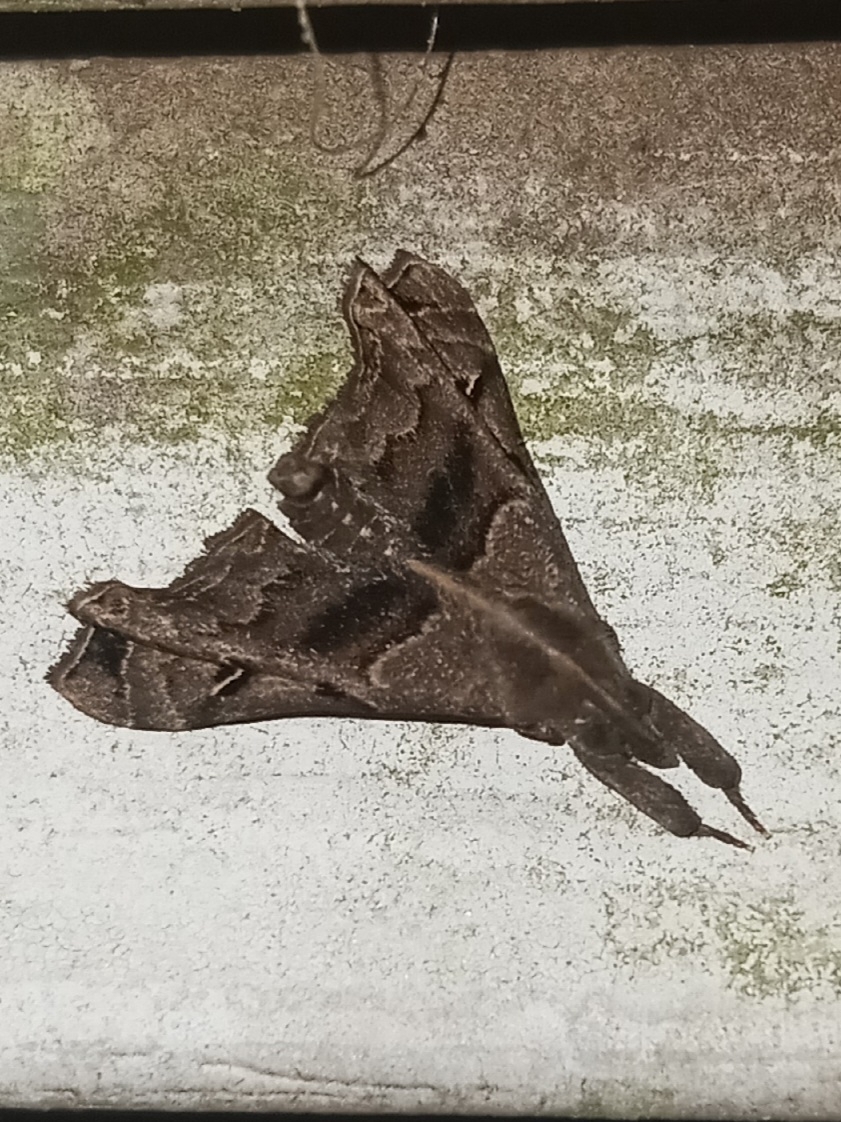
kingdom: Animalia
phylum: Arthropoda
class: Insecta
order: Lepidoptera
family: Erebidae
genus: Palthis
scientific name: Palthis asopialis
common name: Faint-spotted palthis moth
